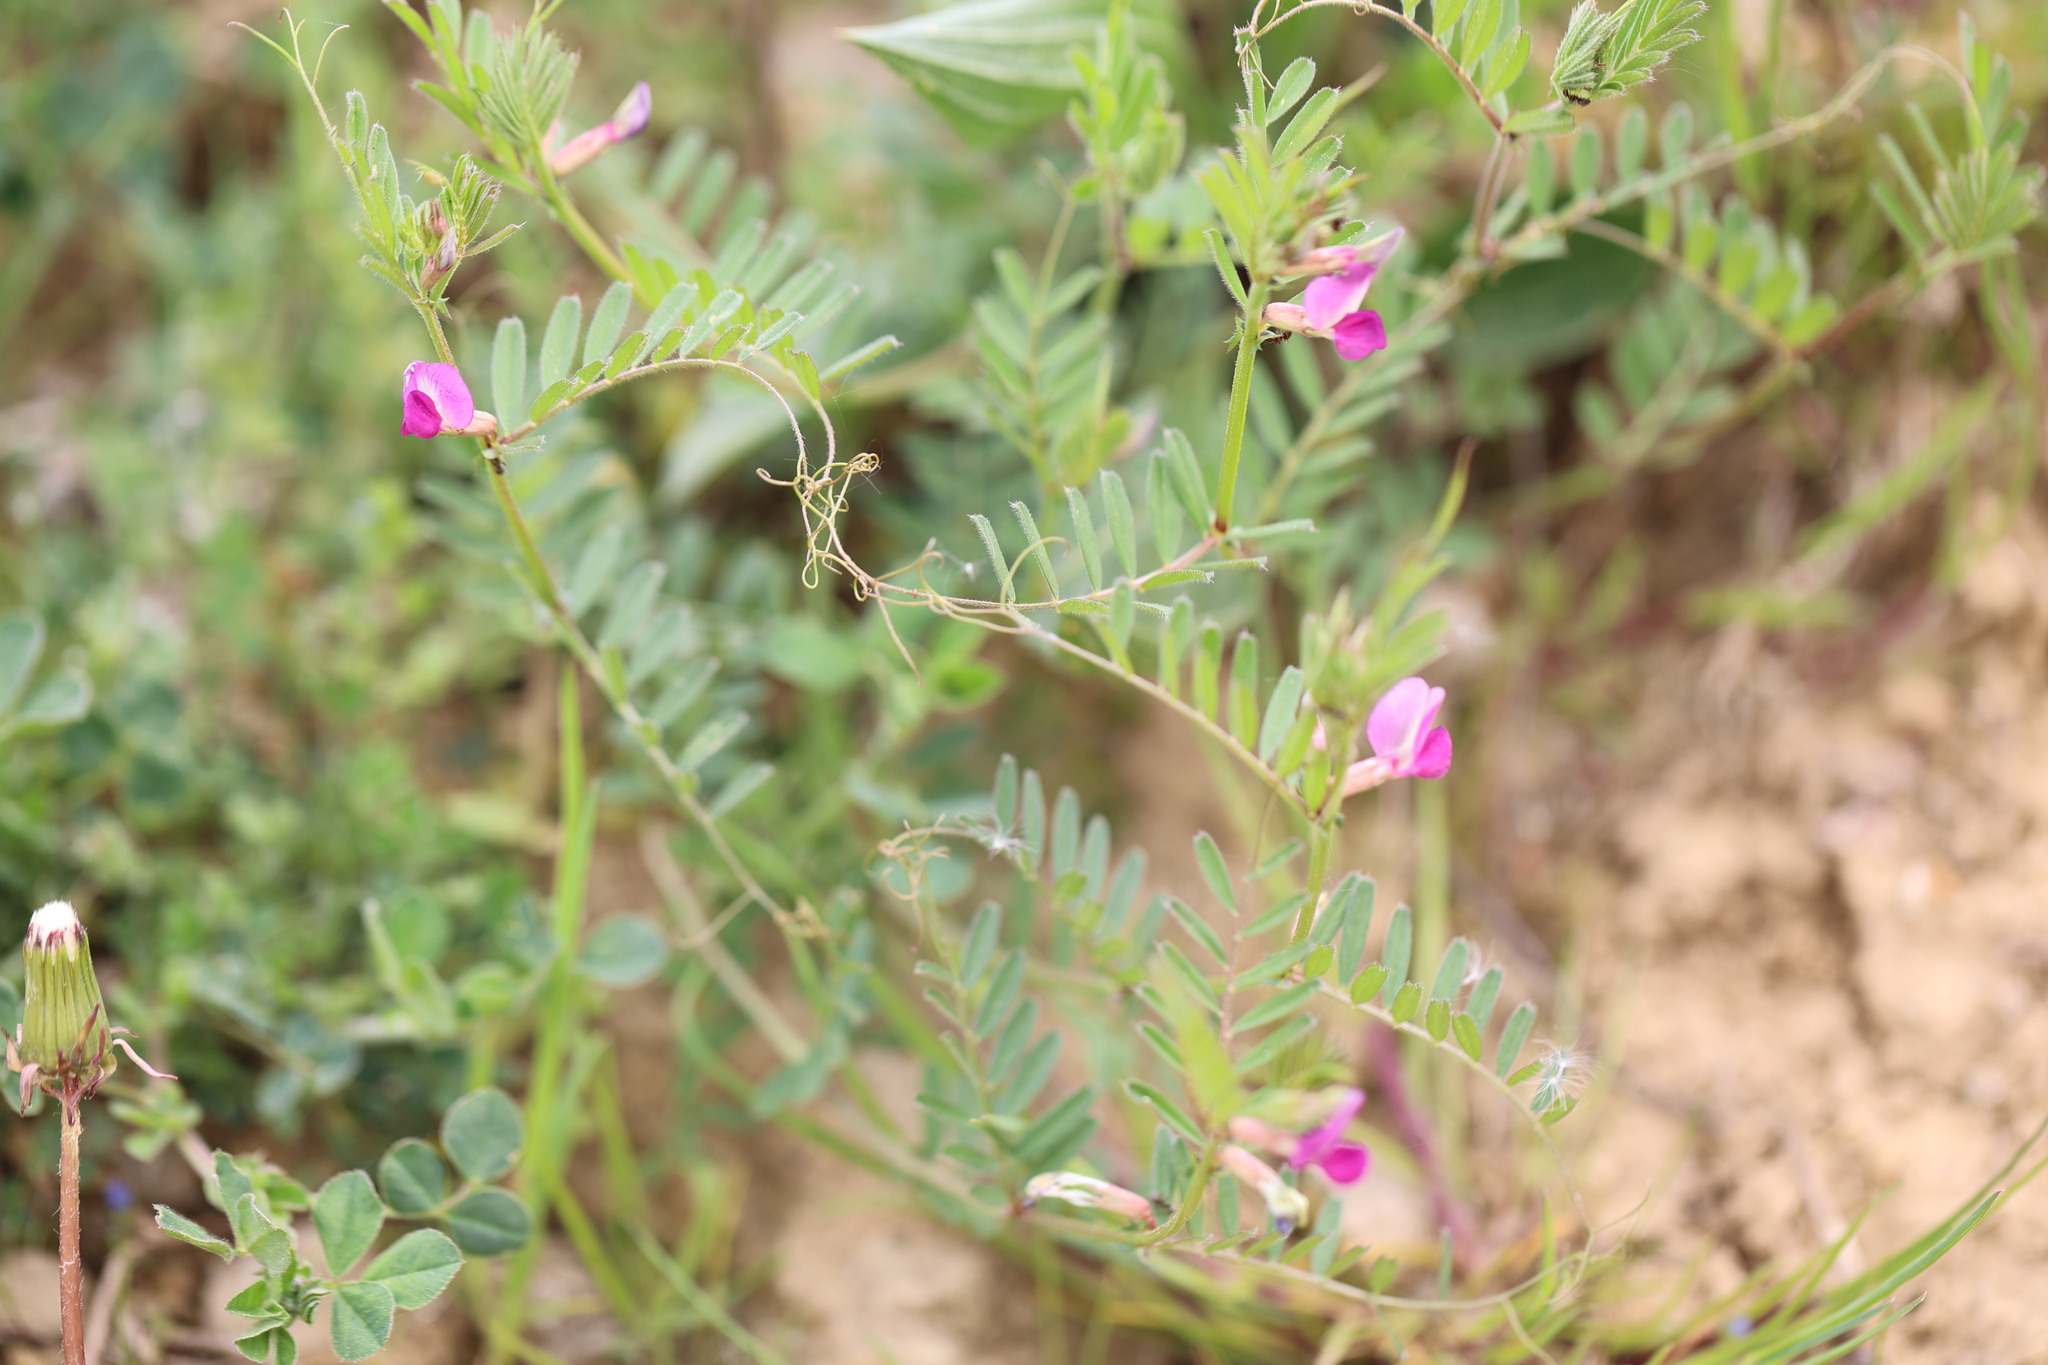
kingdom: Plantae
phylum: Tracheophyta
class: Magnoliopsida
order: Fabales
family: Fabaceae
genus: Vicia
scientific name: Vicia sativa
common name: Garden vetch
